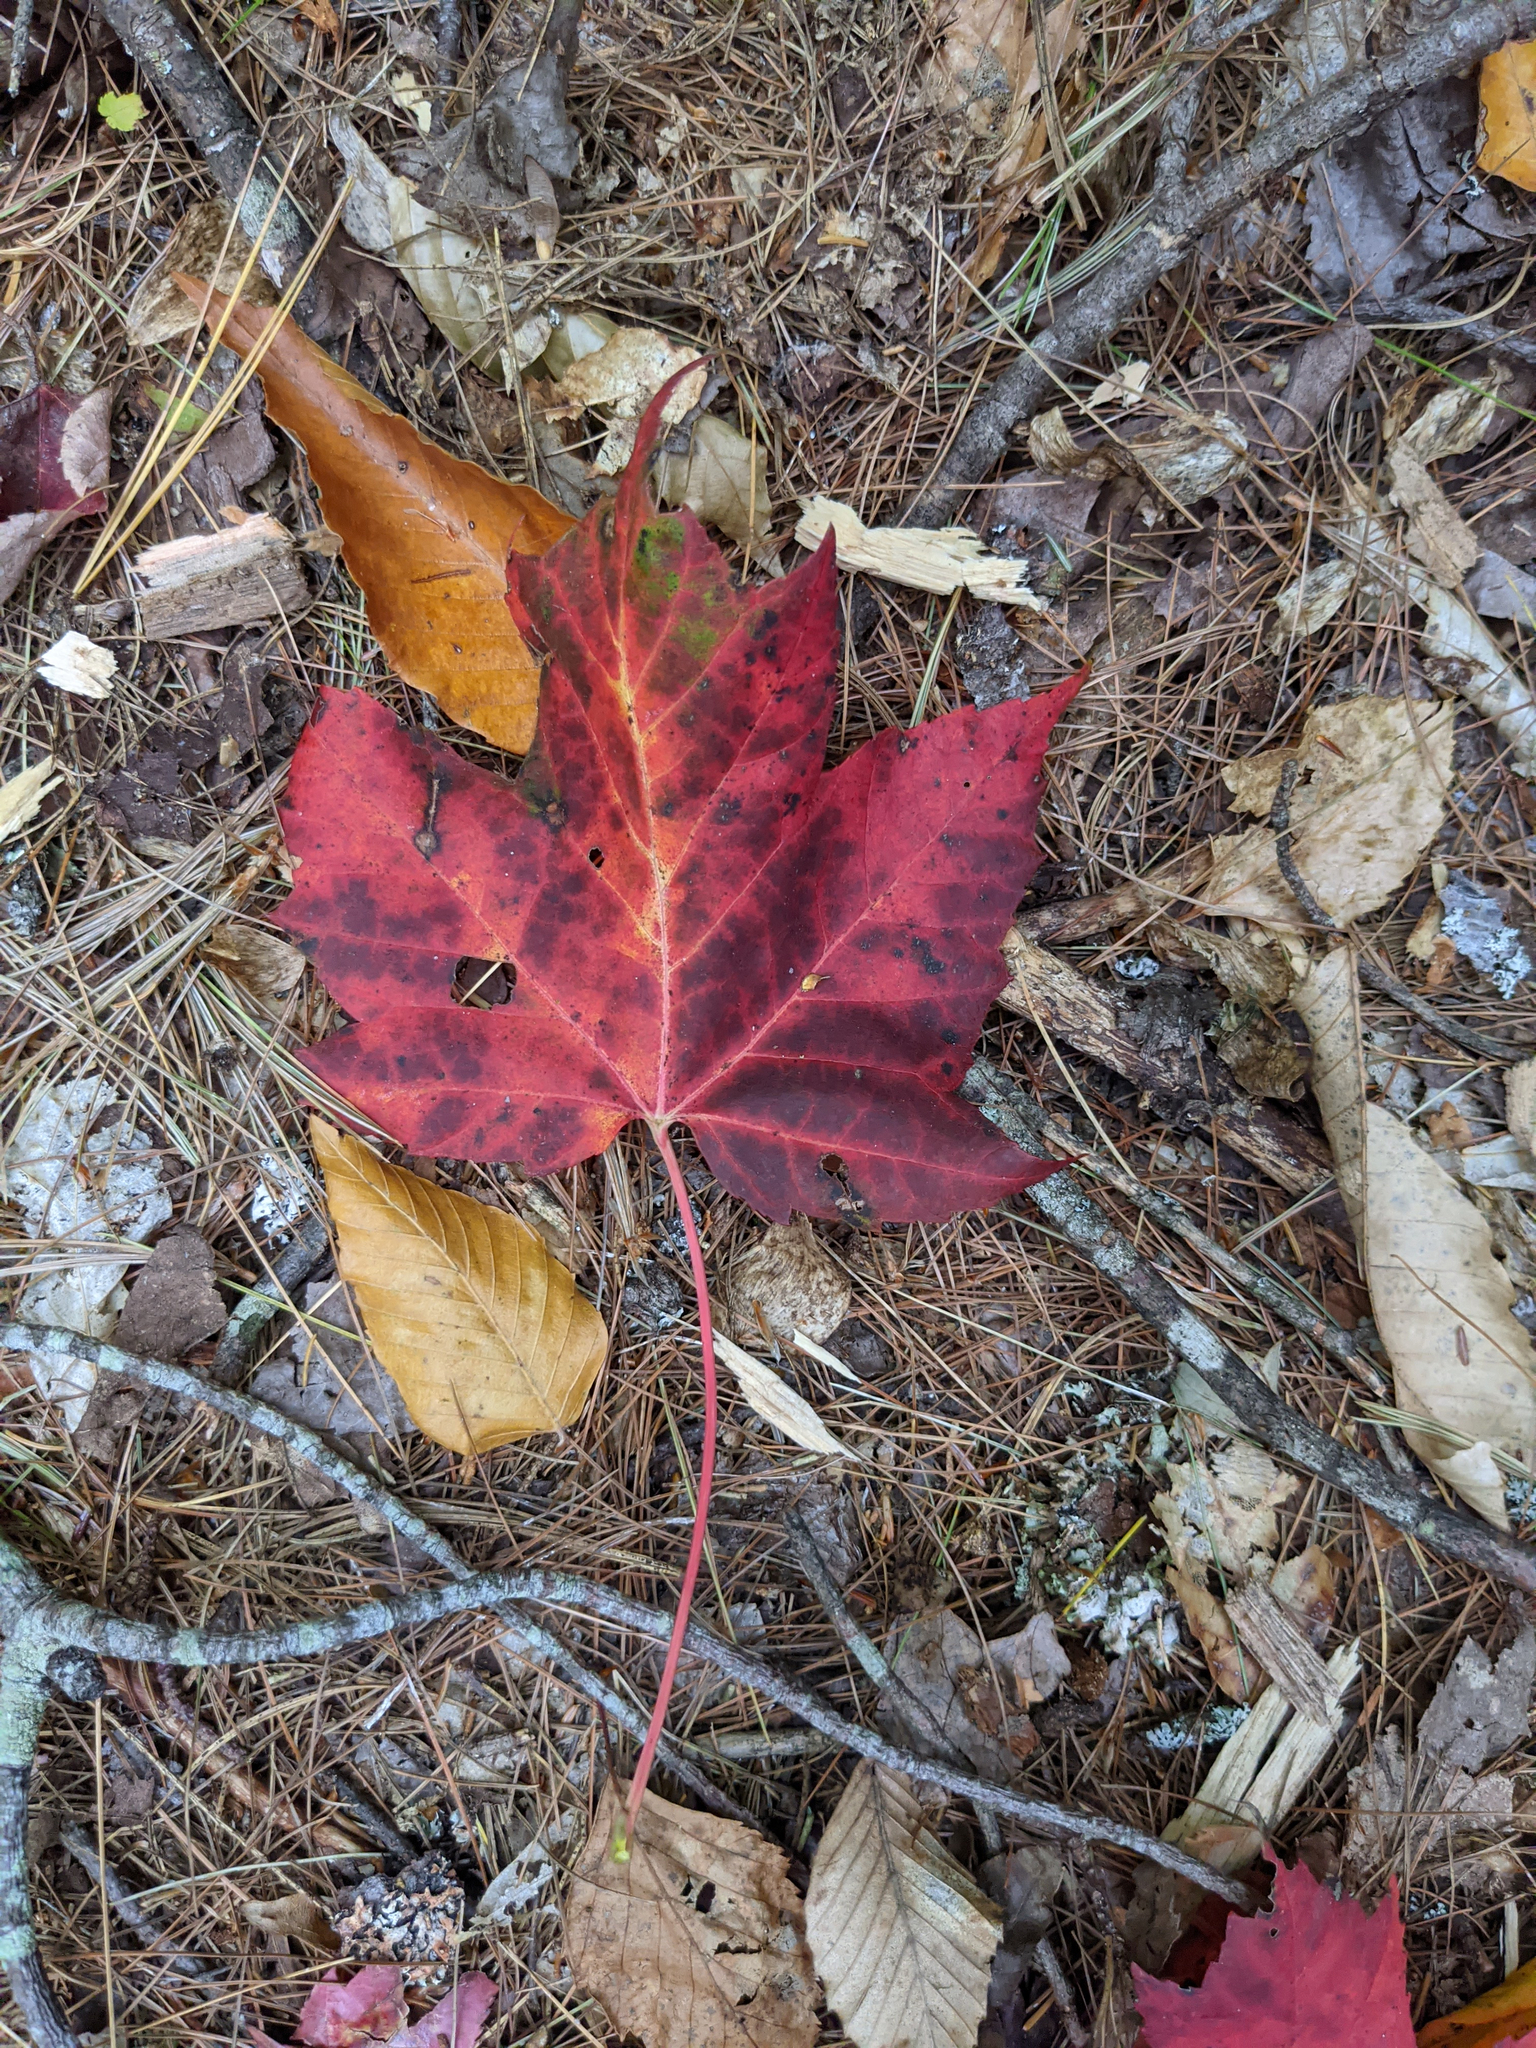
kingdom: Plantae
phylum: Tracheophyta
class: Magnoliopsida
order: Sapindales
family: Sapindaceae
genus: Acer
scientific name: Acer rubrum
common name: Red maple
